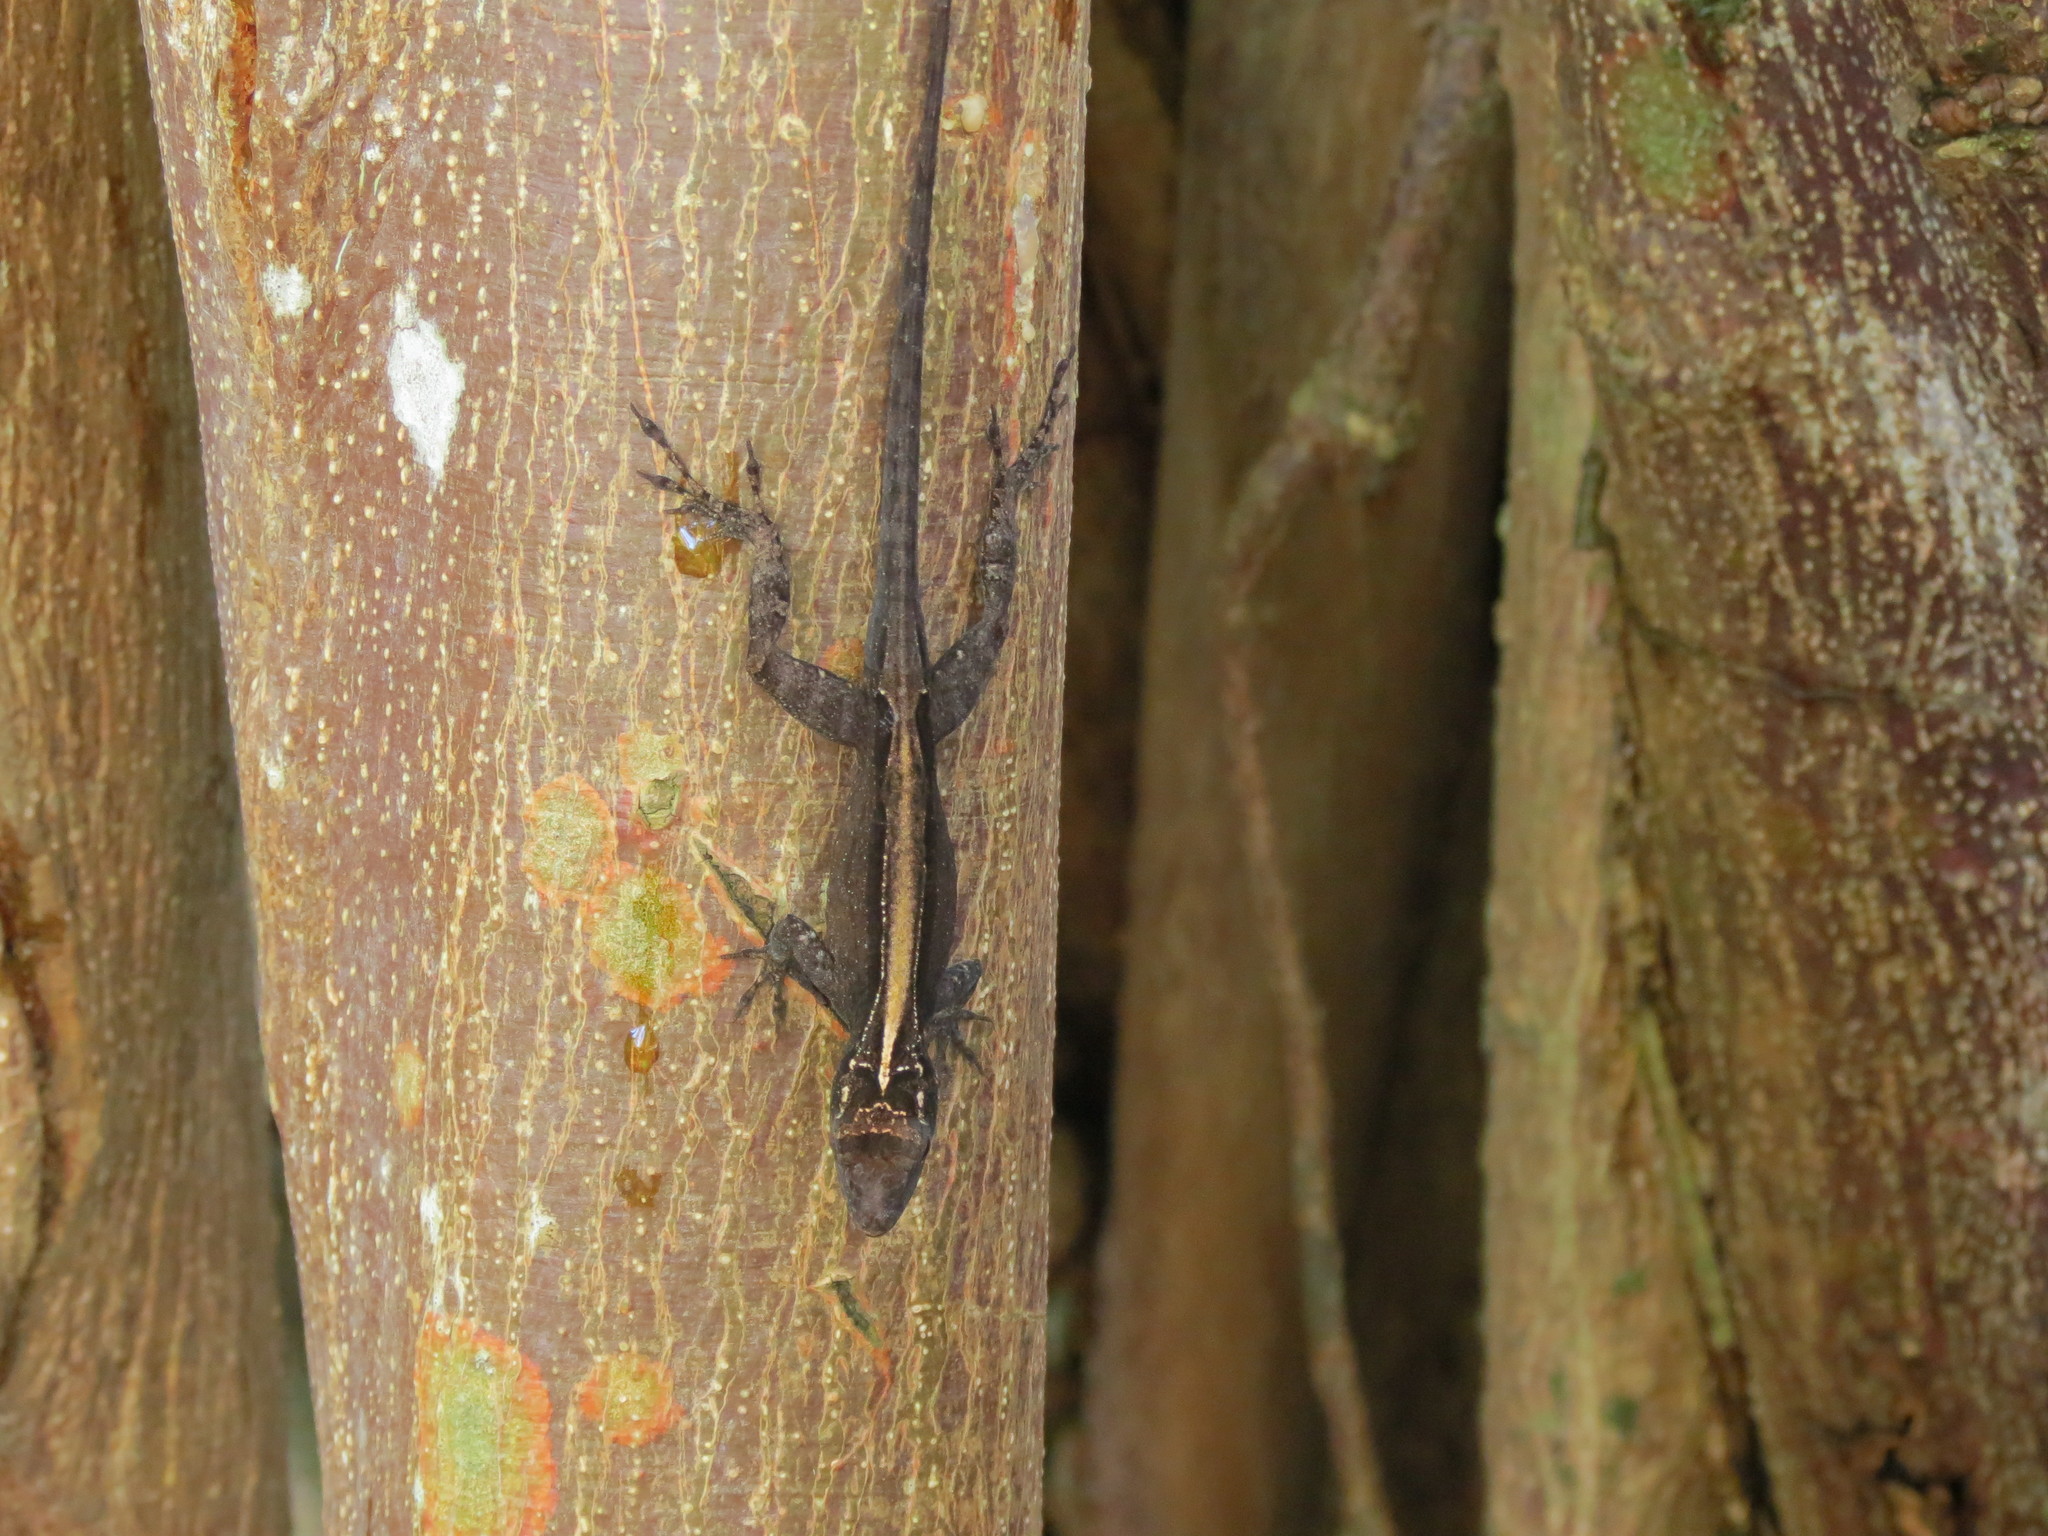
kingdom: Animalia
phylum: Chordata
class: Squamata
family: Dactyloidae
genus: Anolis
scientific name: Anolis cristatellus
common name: Crested anole
